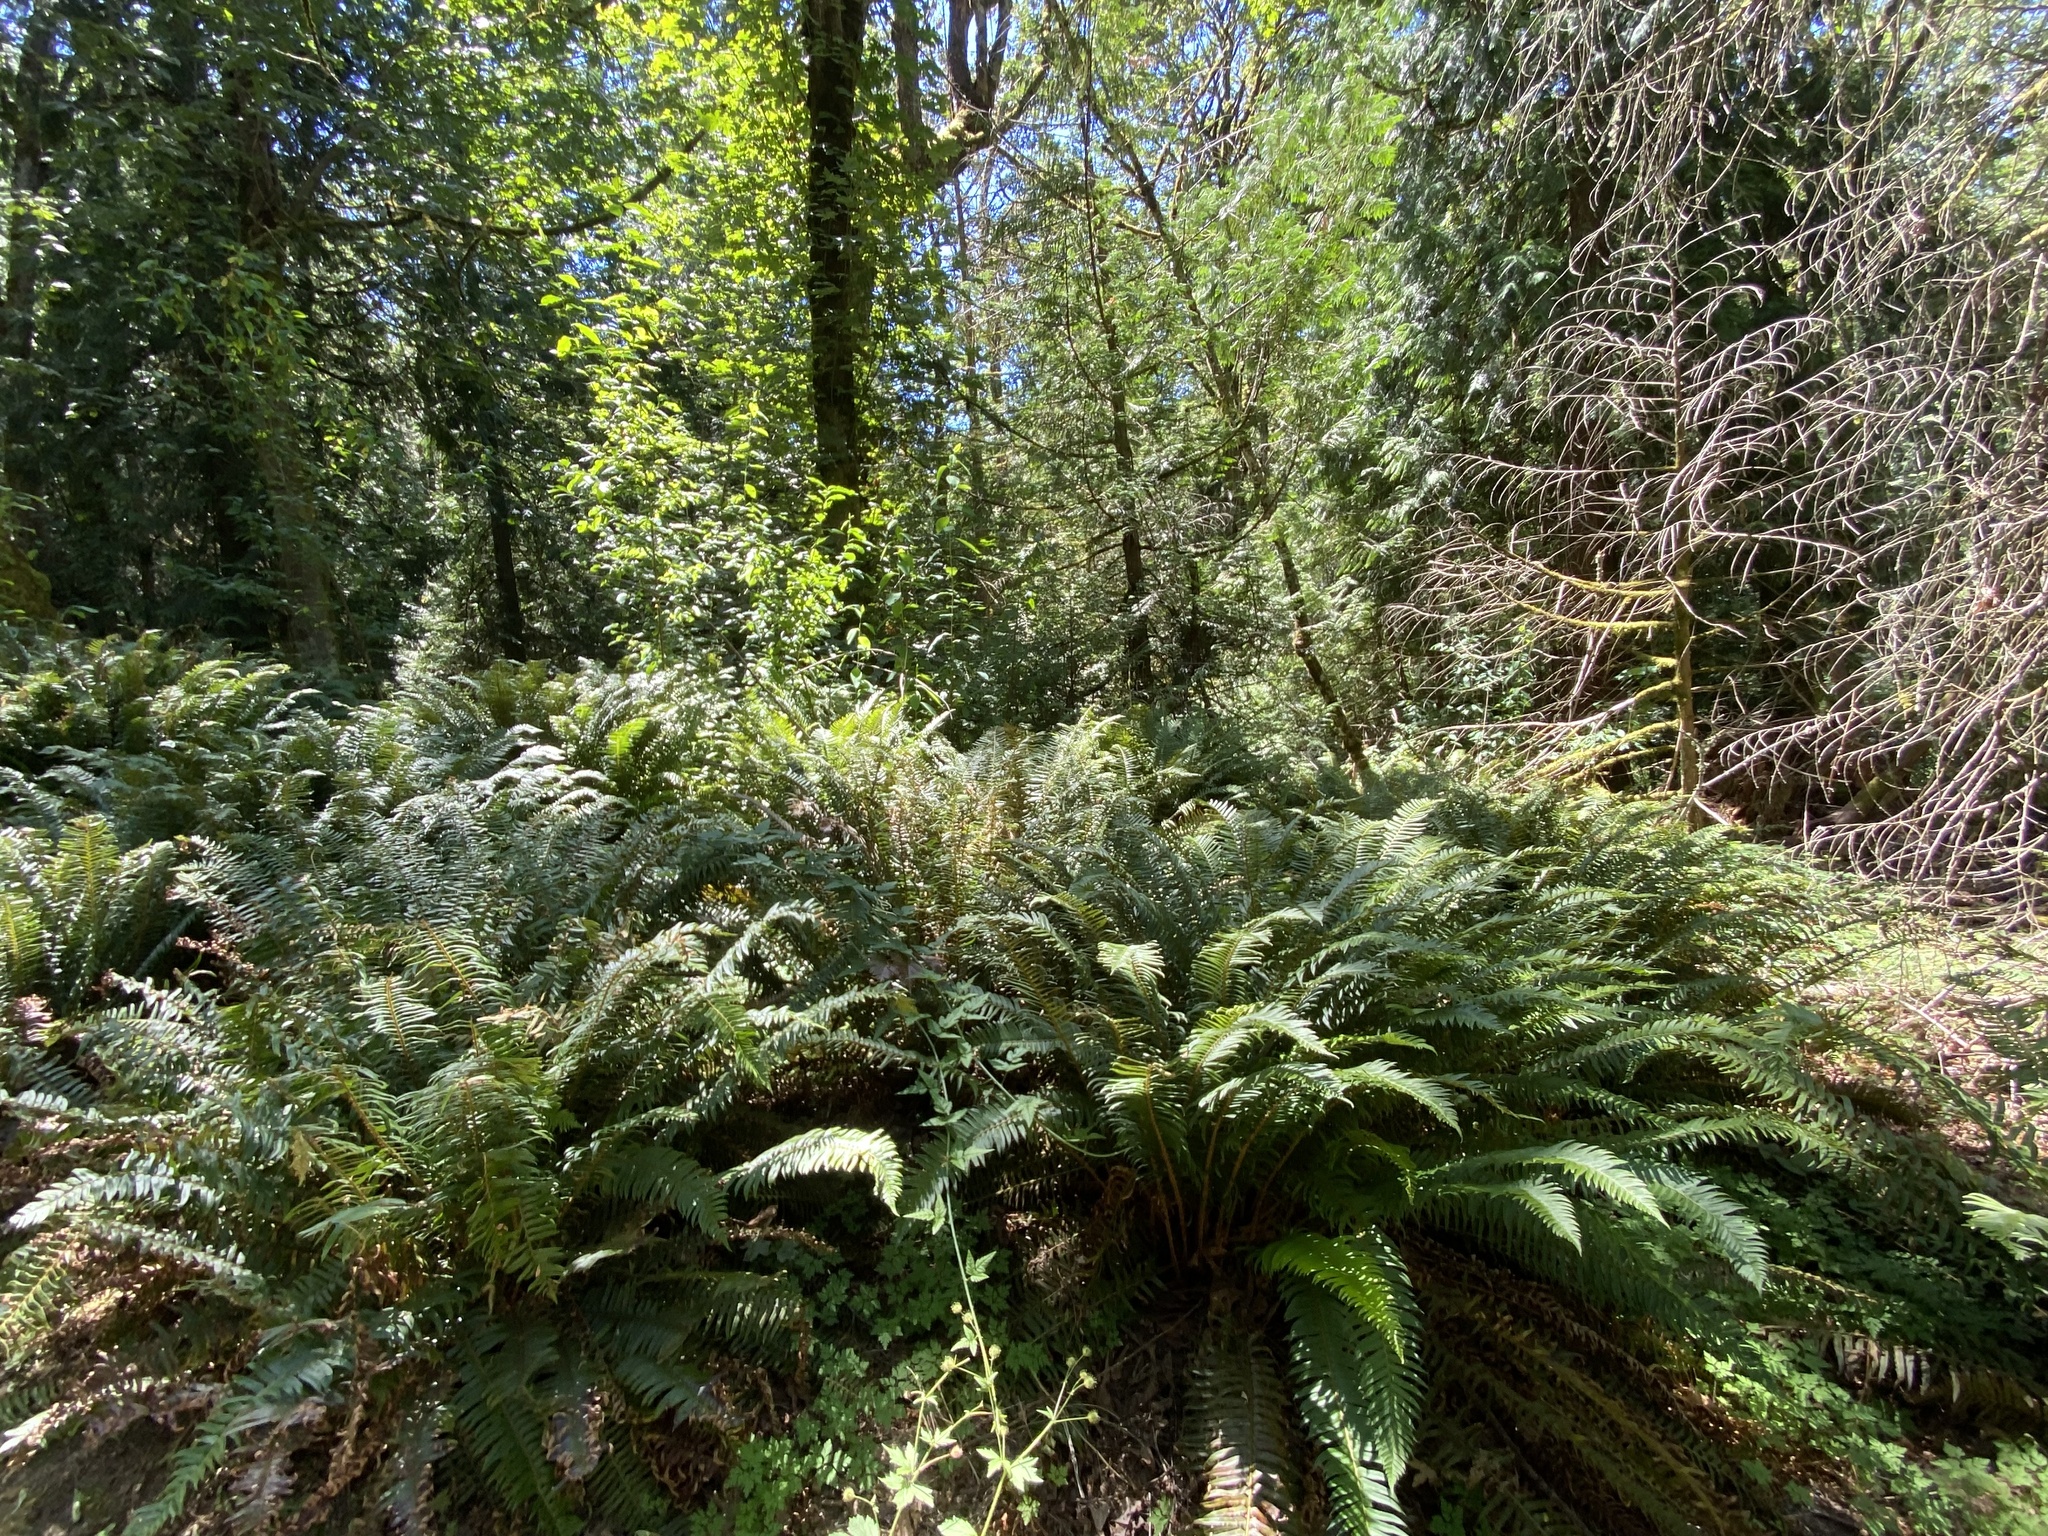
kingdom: Plantae
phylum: Tracheophyta
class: Polypodiopsida
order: Polypodiales
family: Dryopteridaceae
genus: Polystichum
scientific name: Polystichum munitum
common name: Western sword-fern
